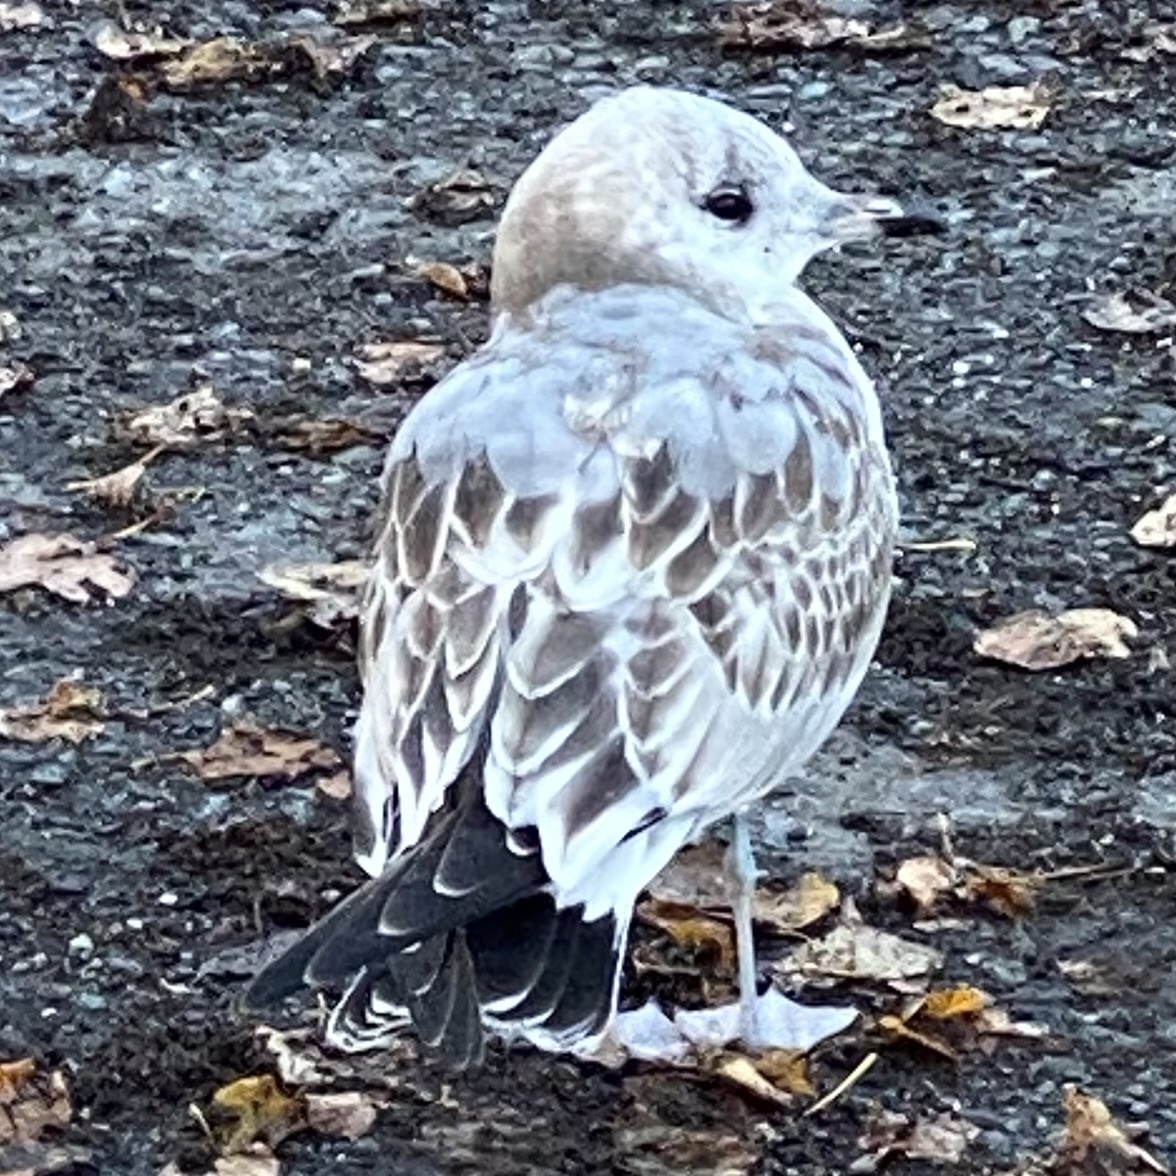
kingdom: Animalia
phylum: Chordata
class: Aves
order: Charadriiformes
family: Laridae
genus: Larus
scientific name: Larus canus
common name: Mew gull
